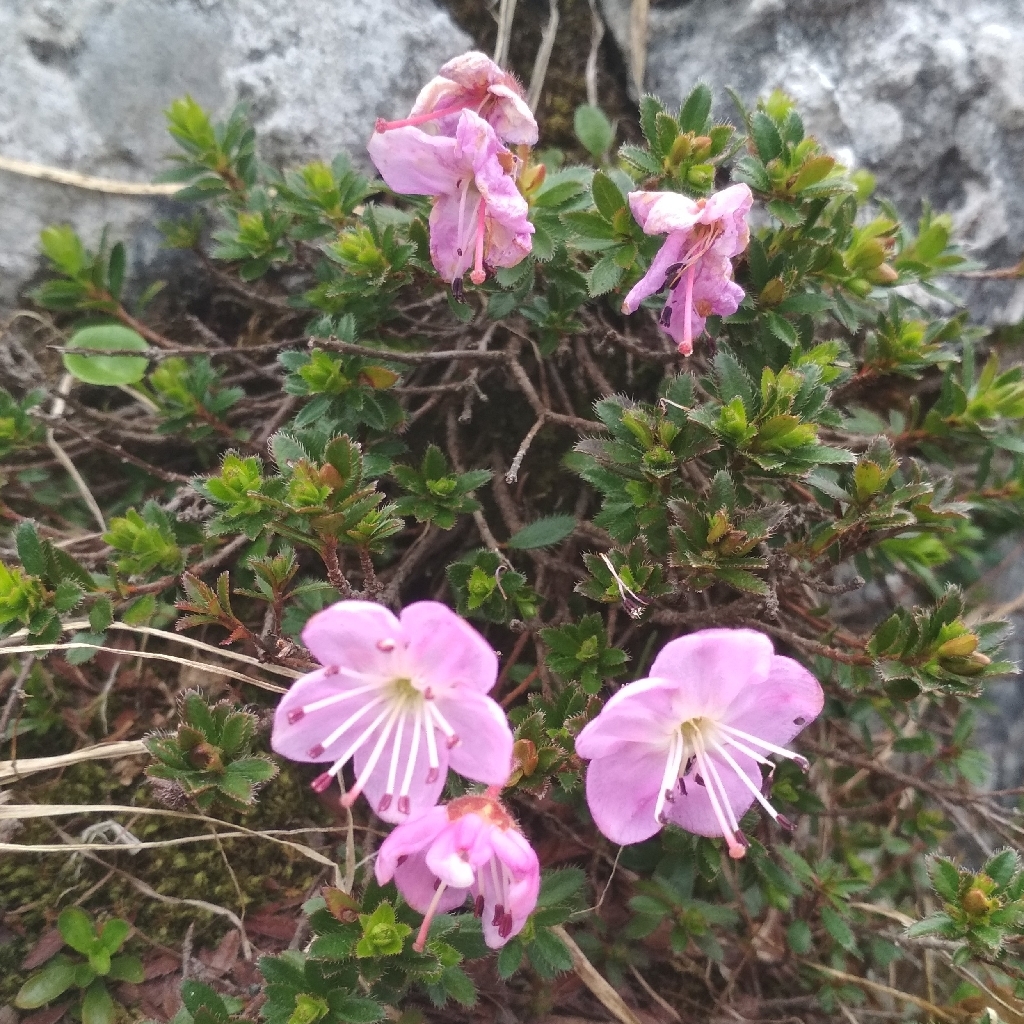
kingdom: Plantae
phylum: Tracheophyta
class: Magnoliopsida
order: Ericales
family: Ericaceae
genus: Rhodothamnus
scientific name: Rhodothamnus chamaecistus
